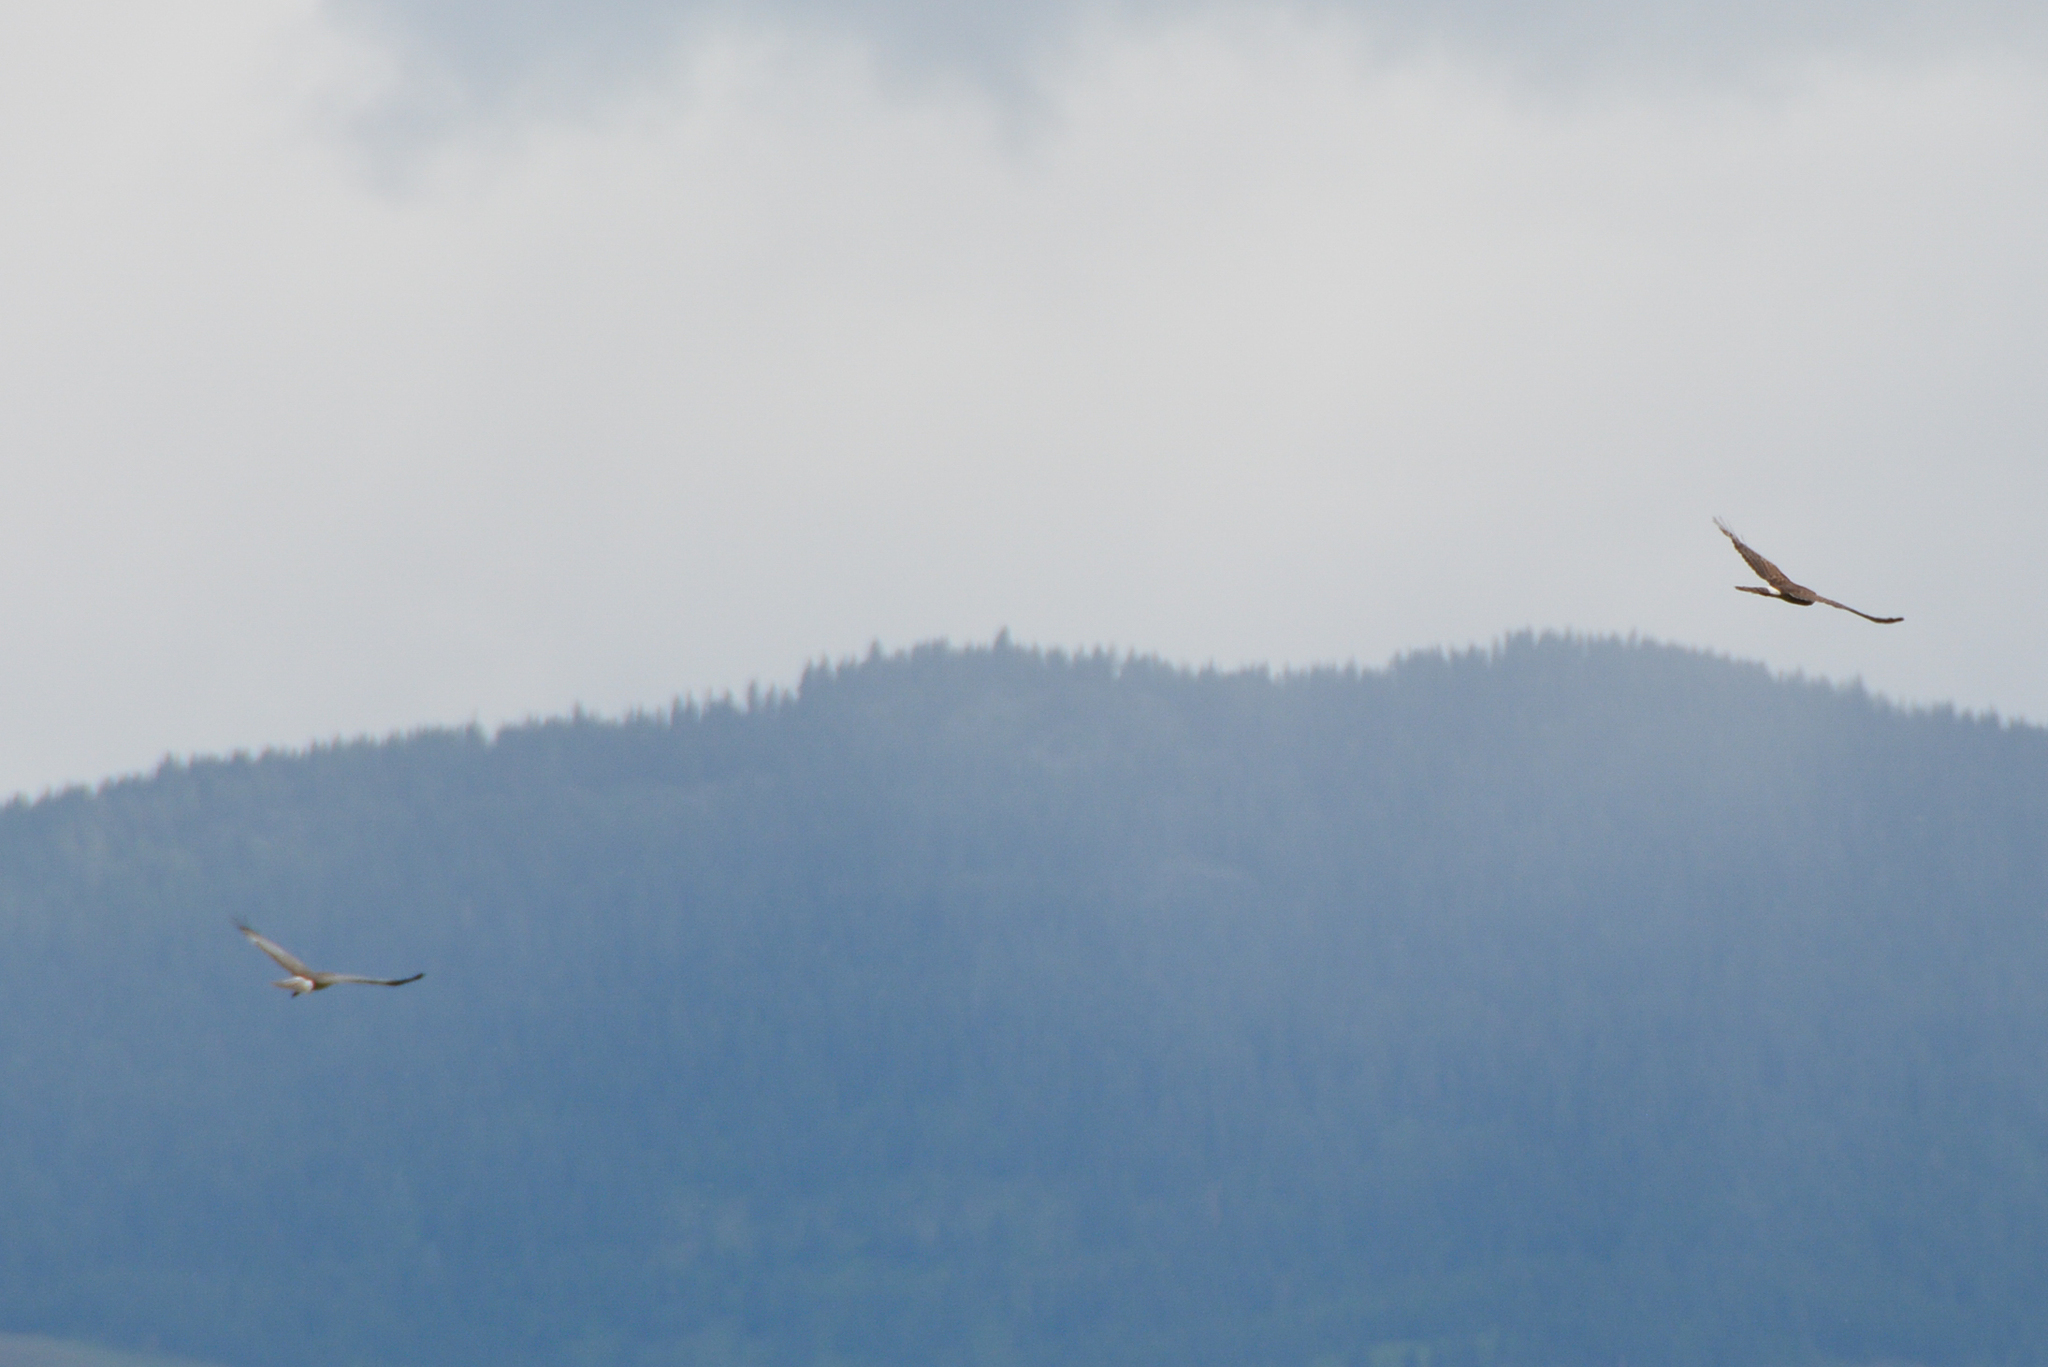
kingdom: Animalia
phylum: Chordata
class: Aves
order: Accipitriformes
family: Accipitridae
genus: Circus
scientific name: Circus cyaneus
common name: Hen harrier
